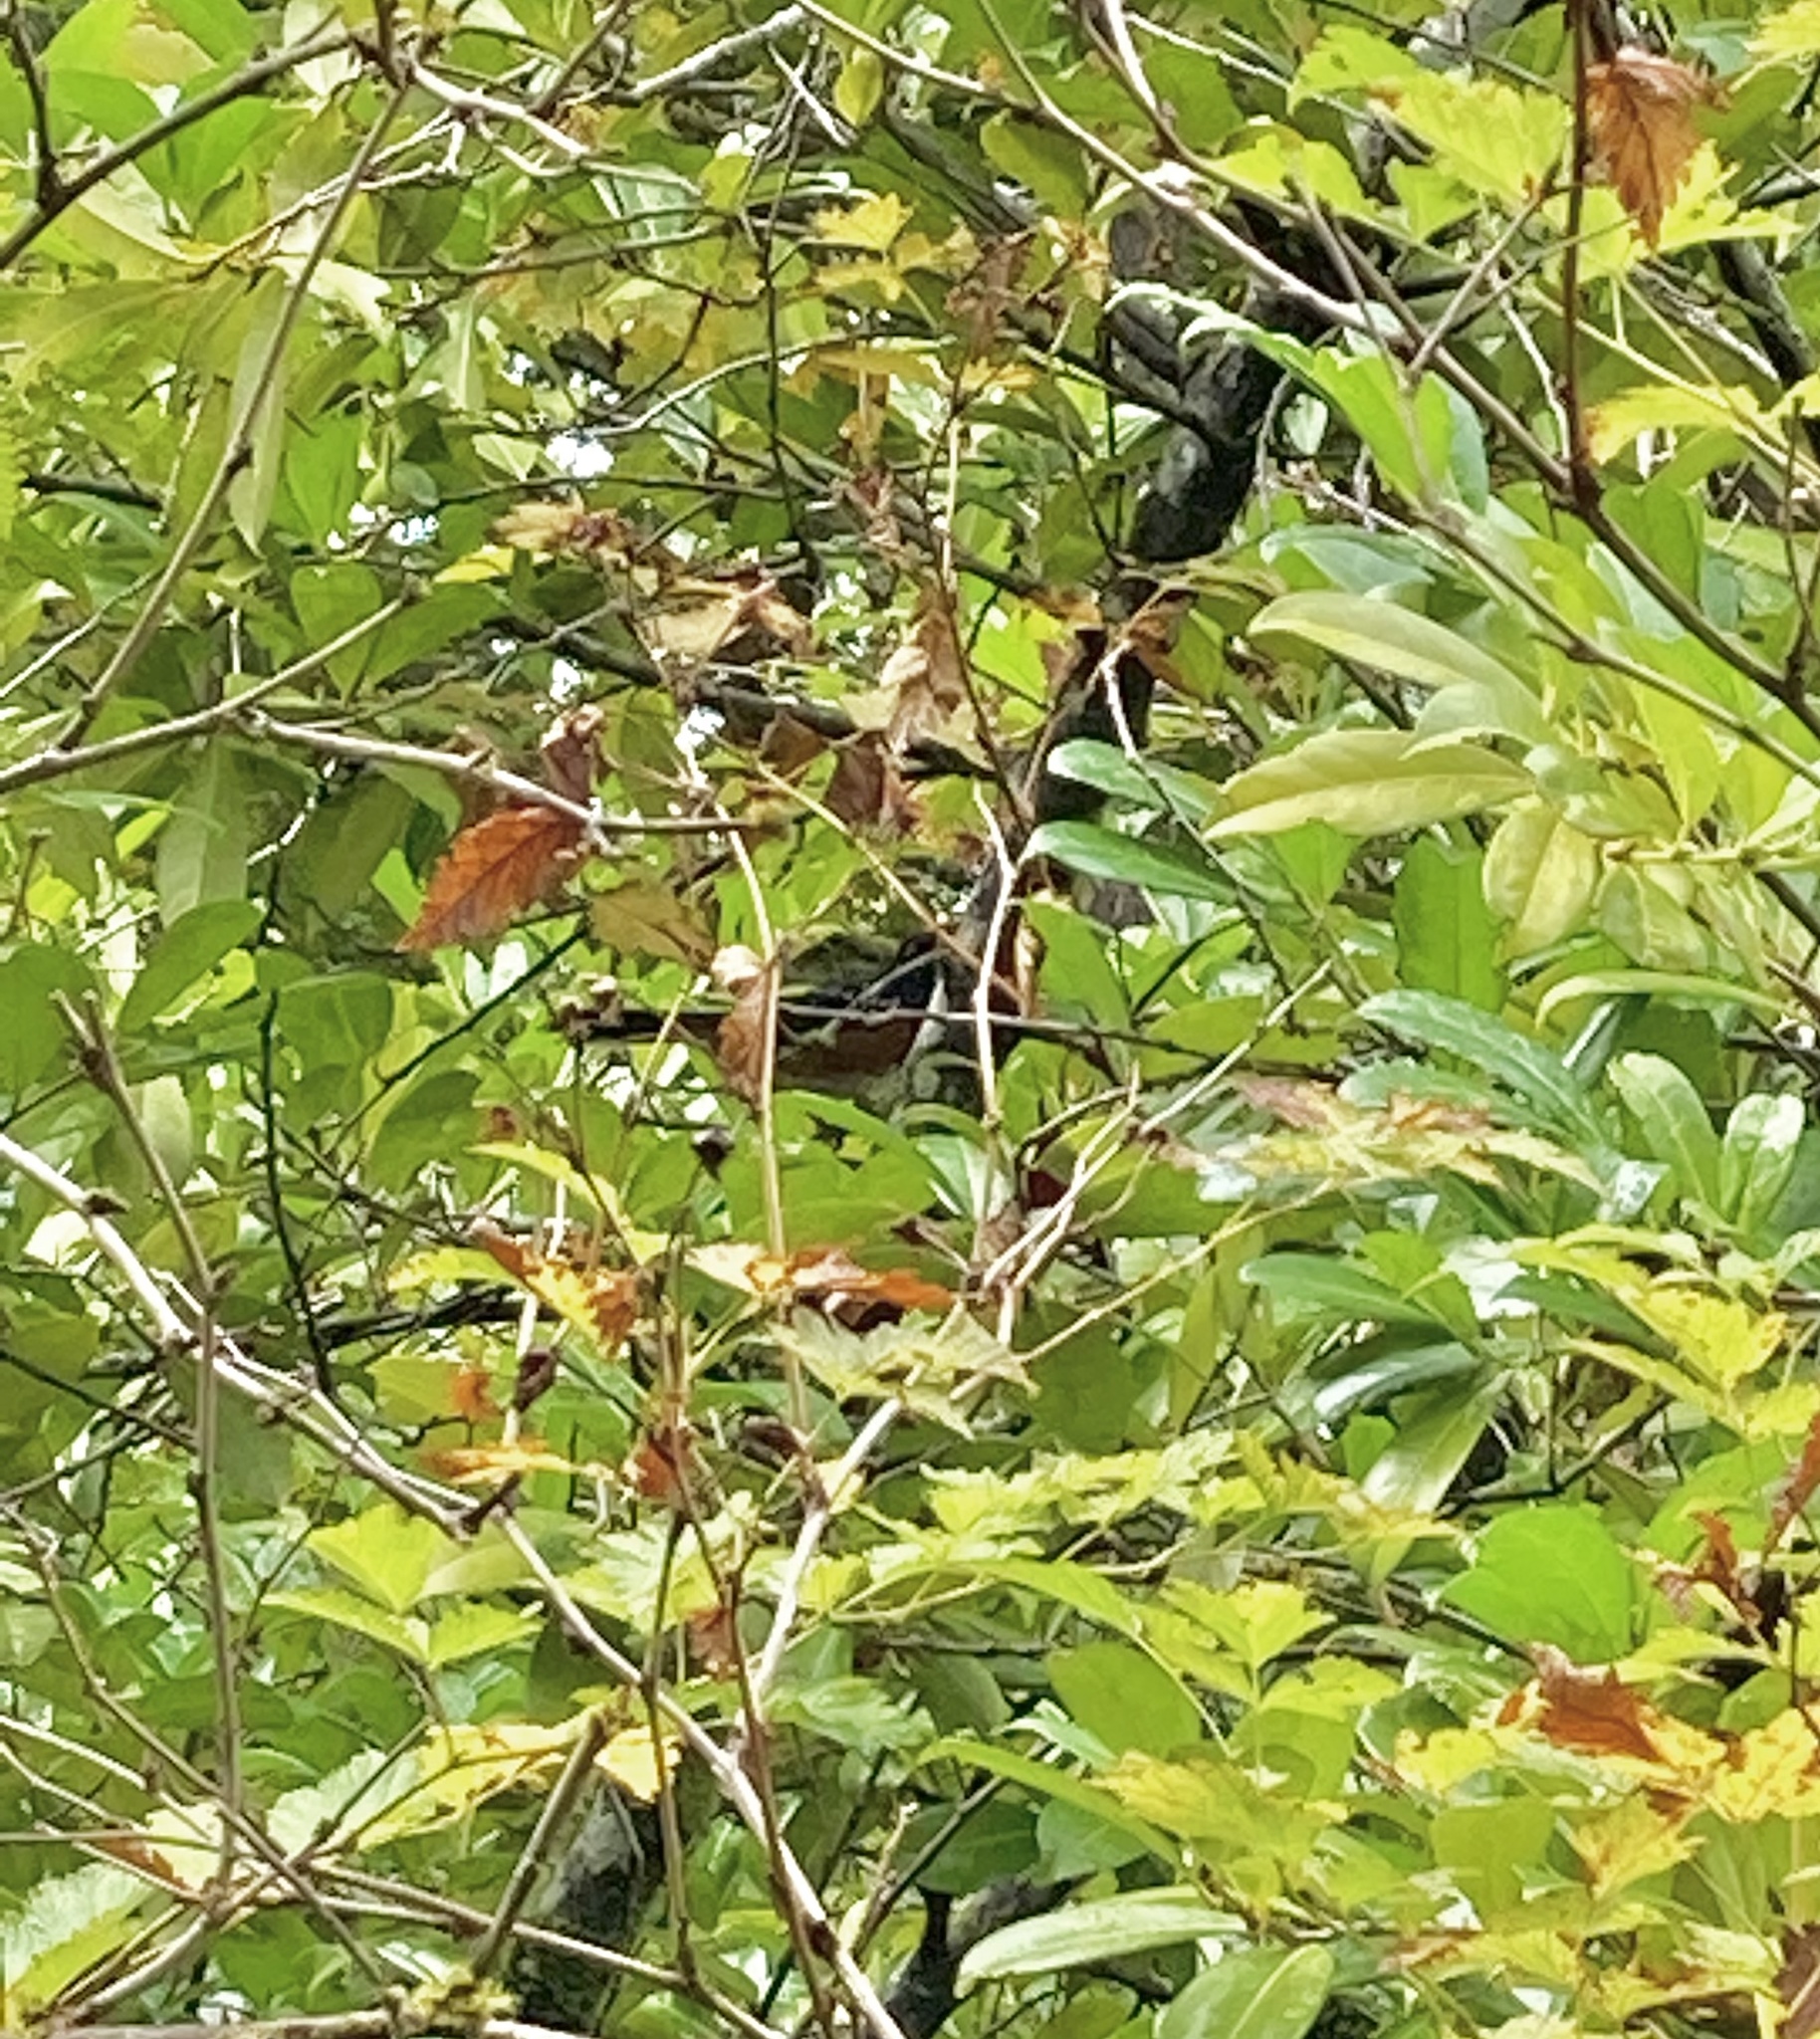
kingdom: Animalia
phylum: Chordata
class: Aves
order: Passeriformes
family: Passerellidae
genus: Pipilo
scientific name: Pipilo maculatus
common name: Spotted towhee
